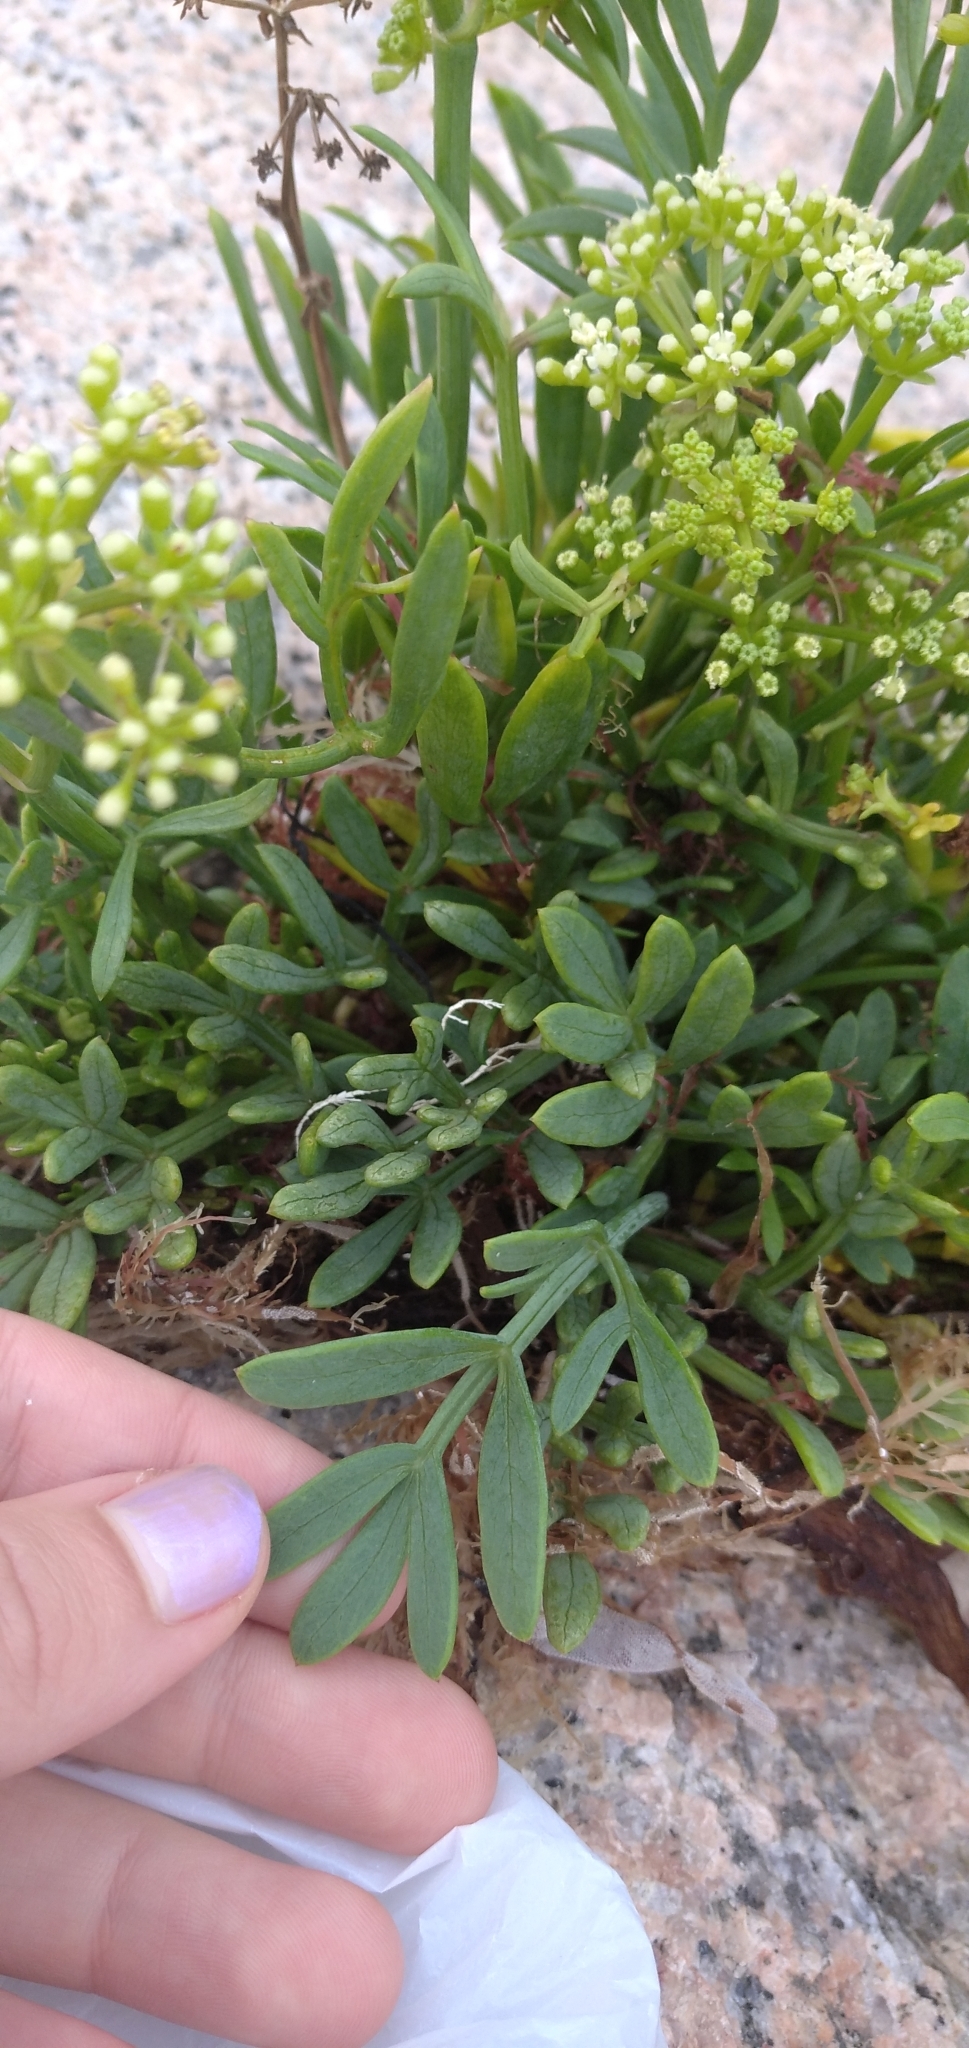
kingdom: Plantae
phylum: Tracheophyta
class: Magnoliopsida
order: Apiales
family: Apiaceae
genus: Crithmum
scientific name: Crithmum maritimum
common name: Rock samphire
